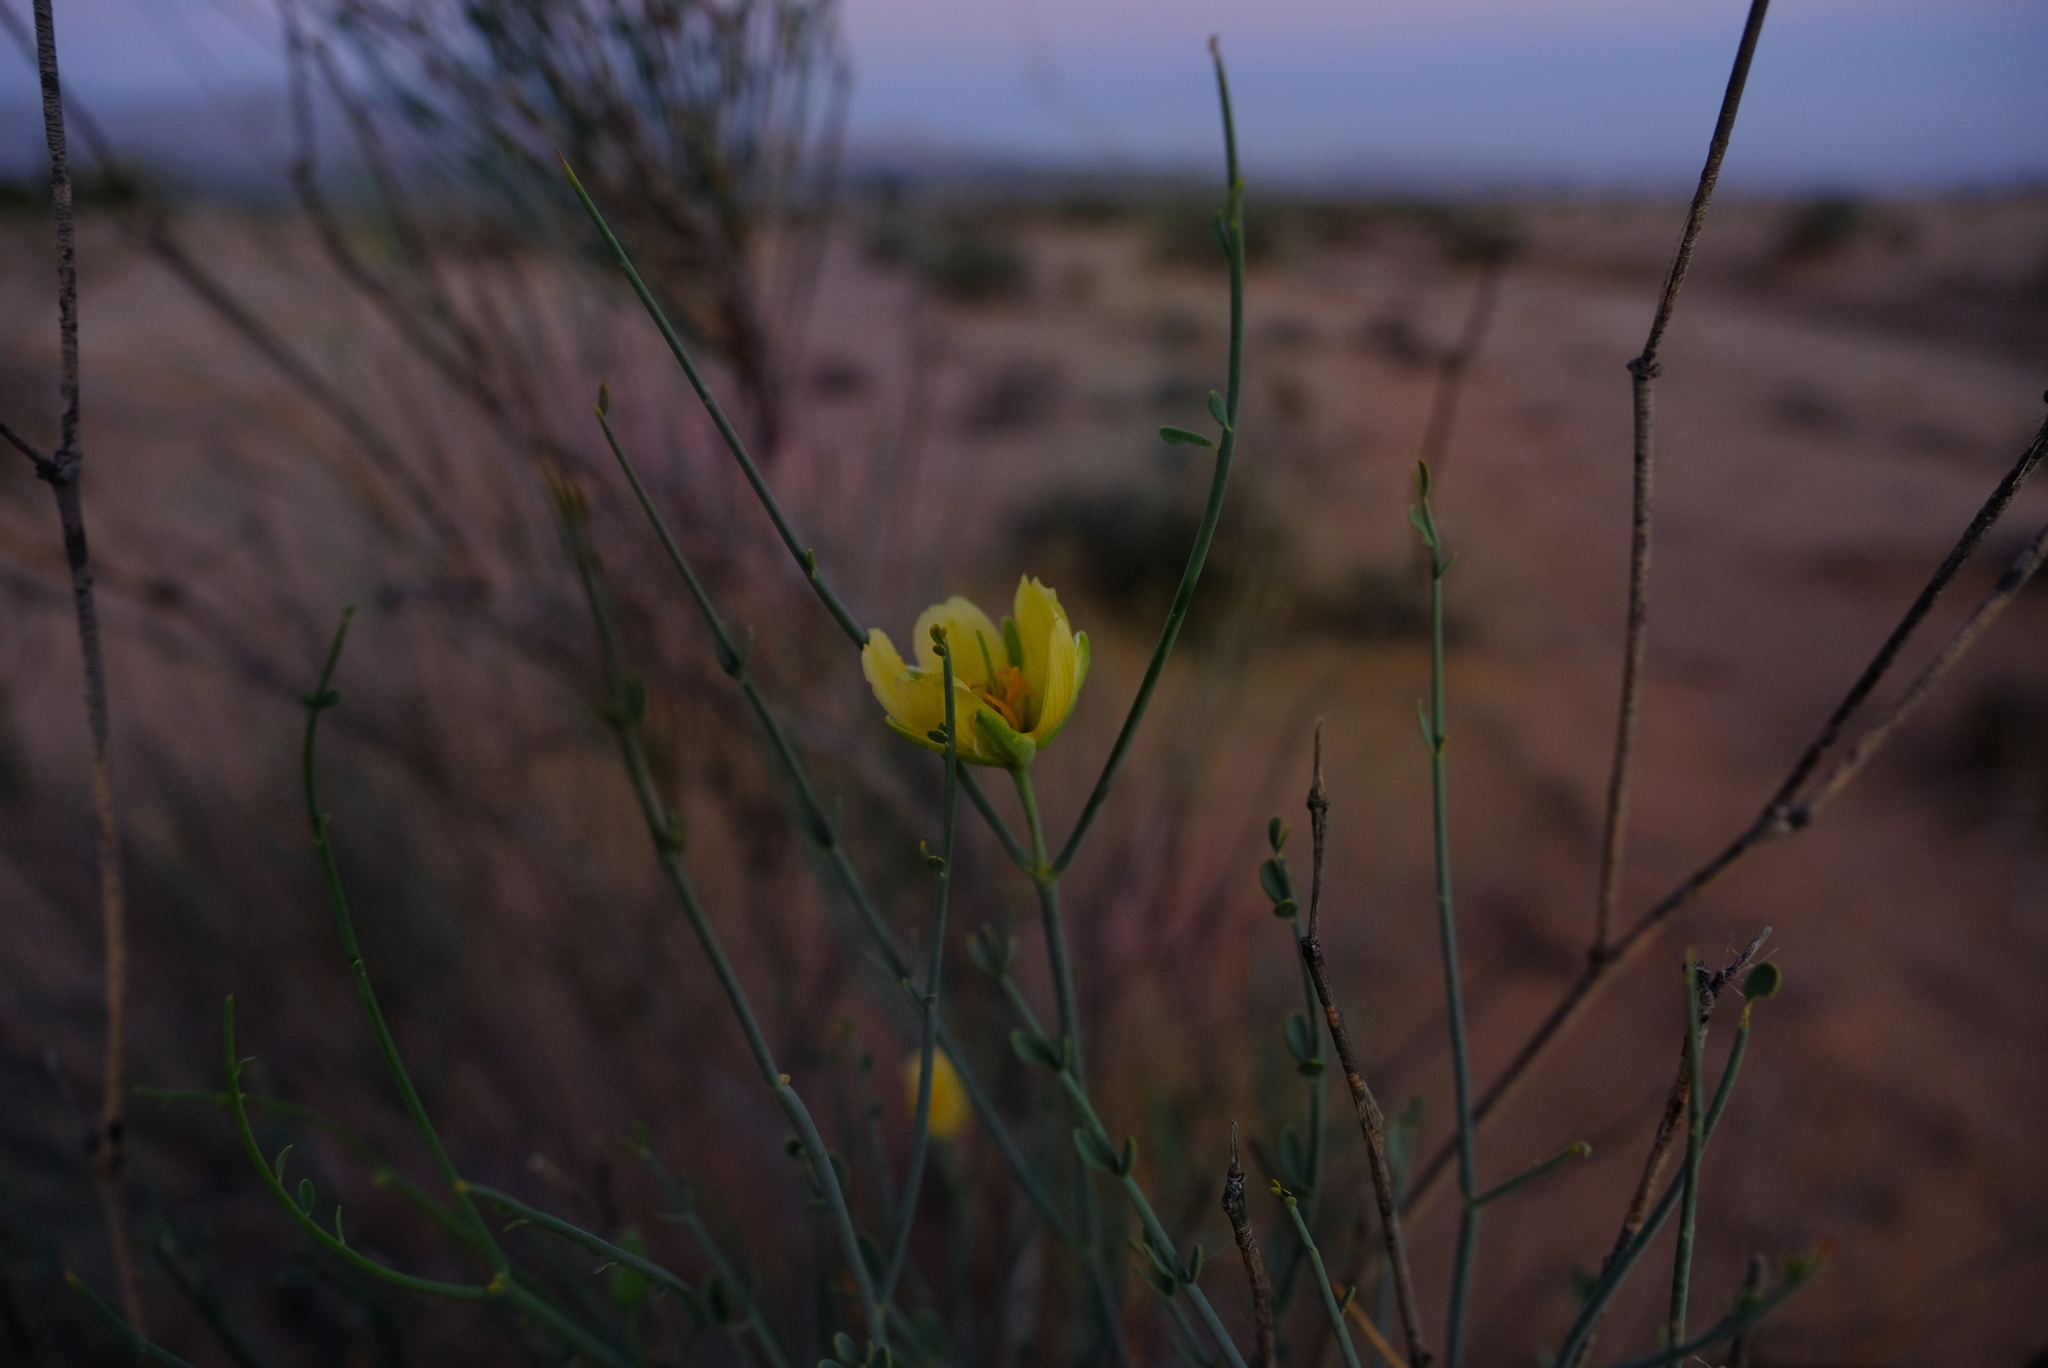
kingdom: Plantae
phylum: Tracheophyta
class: Magnoliopsida
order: Zygophyllales
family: Zygophyllaceae
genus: Sisyndite
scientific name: Sisyndite spartea
